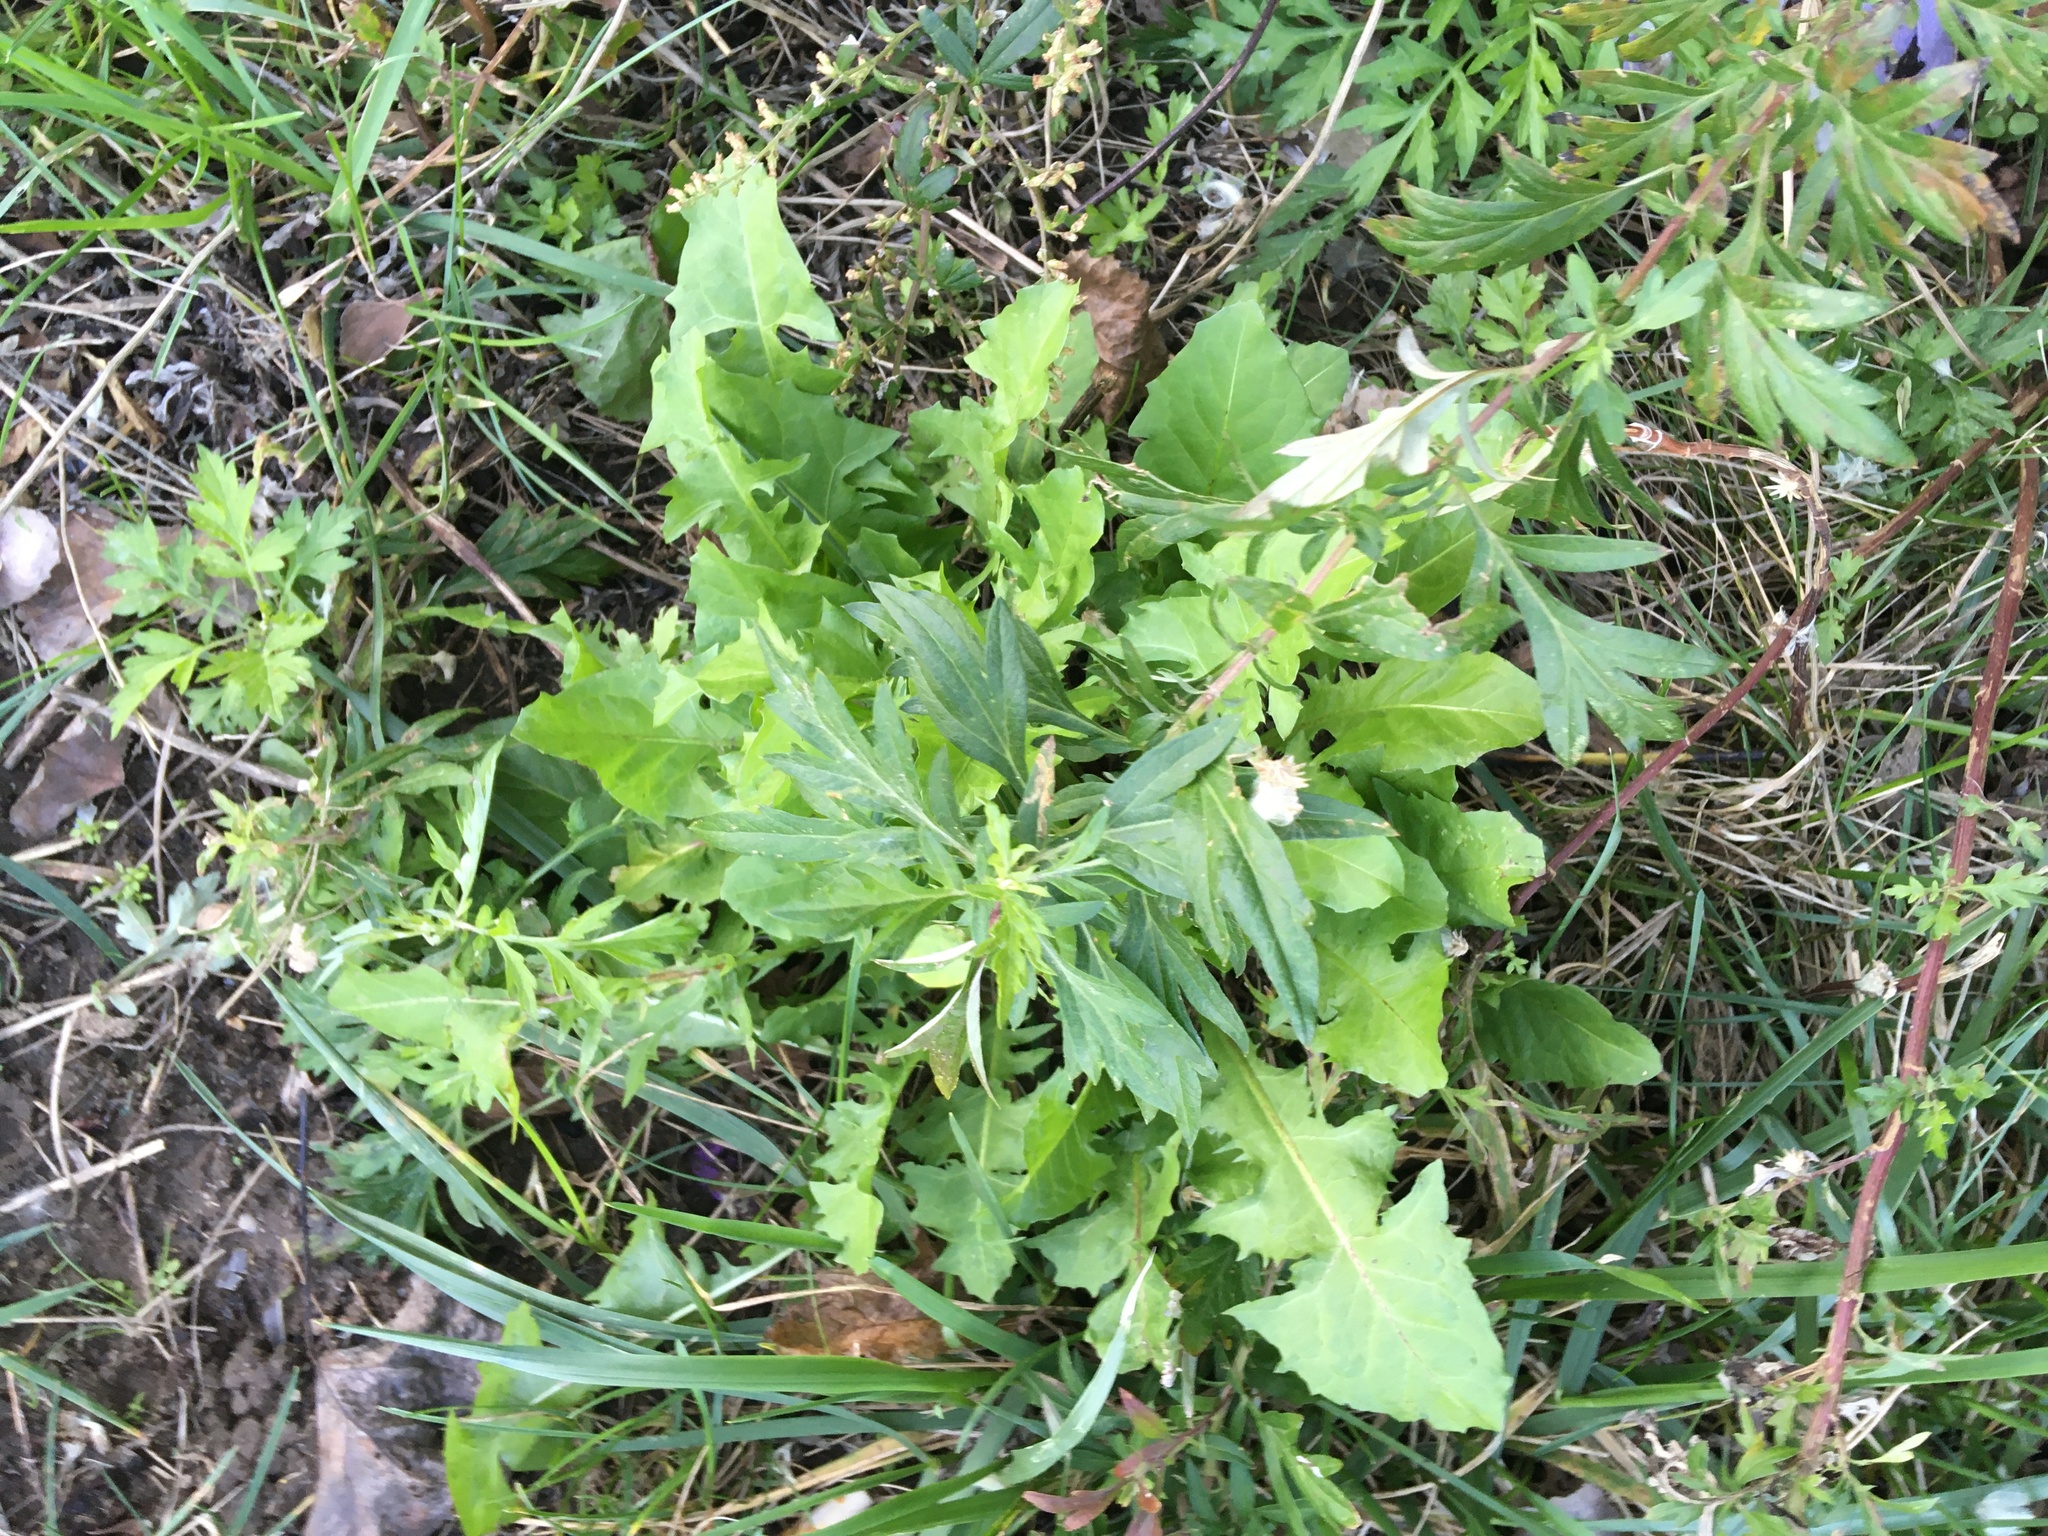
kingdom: Plantae
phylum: Tracheophyta
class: Magnoliopsida
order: Asterales
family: Asteraceae
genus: Artemisia
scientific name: Artemisia vulgaris
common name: Mugwort
